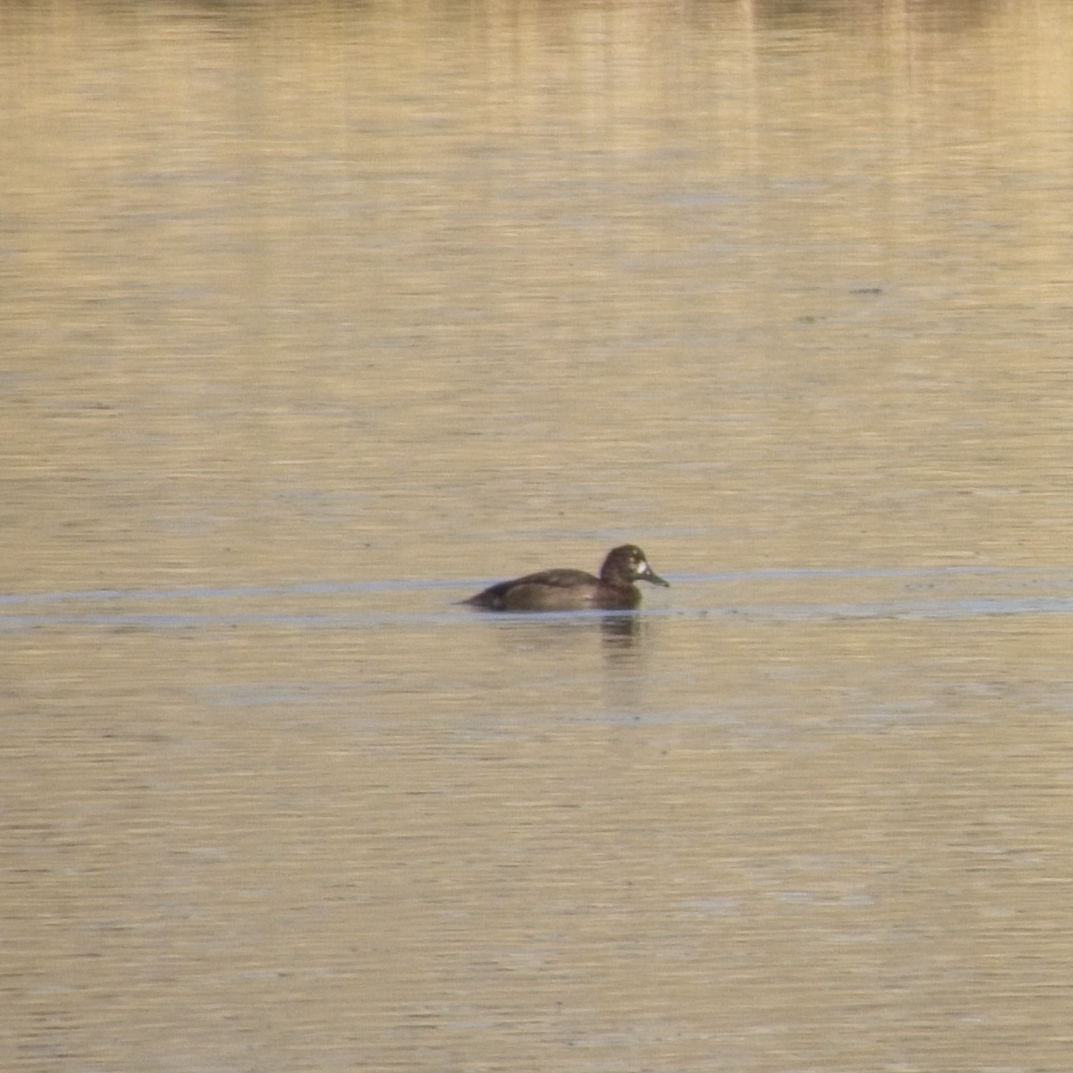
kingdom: Animalia
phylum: Chordata
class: Aves
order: Anseriformes
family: Anatidae
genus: Aythya
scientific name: Aythya fuligula
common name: Tufted duck
